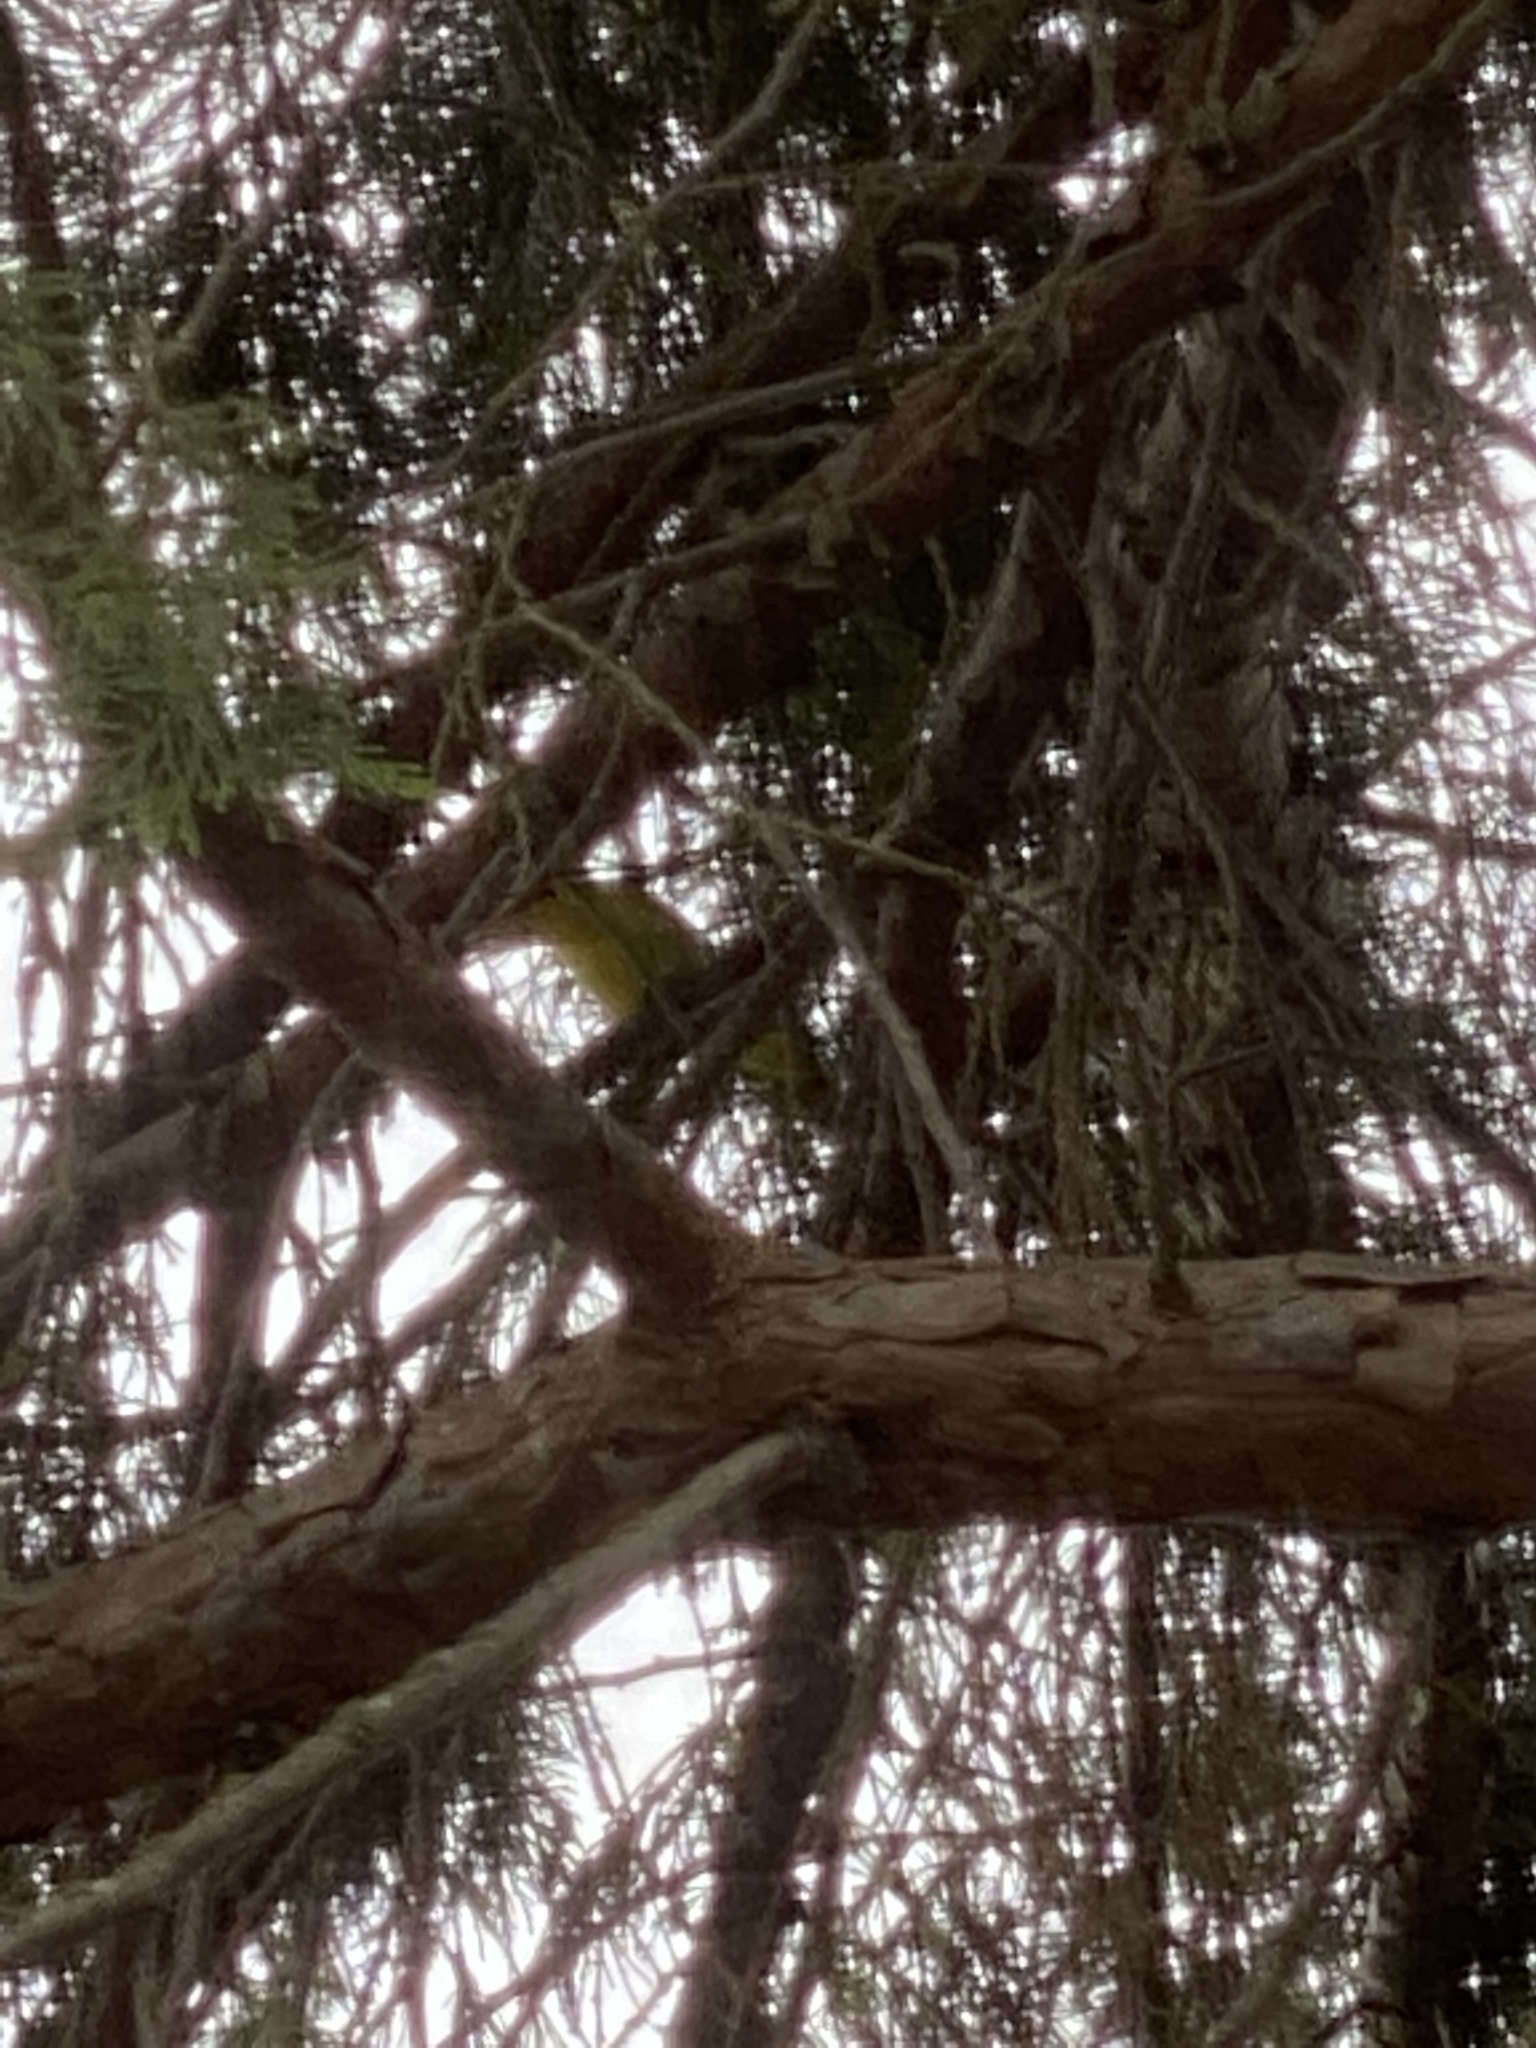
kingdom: Animalia
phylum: Chordata
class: Aves
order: Passeriformes
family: Cardinalidae
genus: Piranga
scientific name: Piranga ludoviciana
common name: Western tanager
